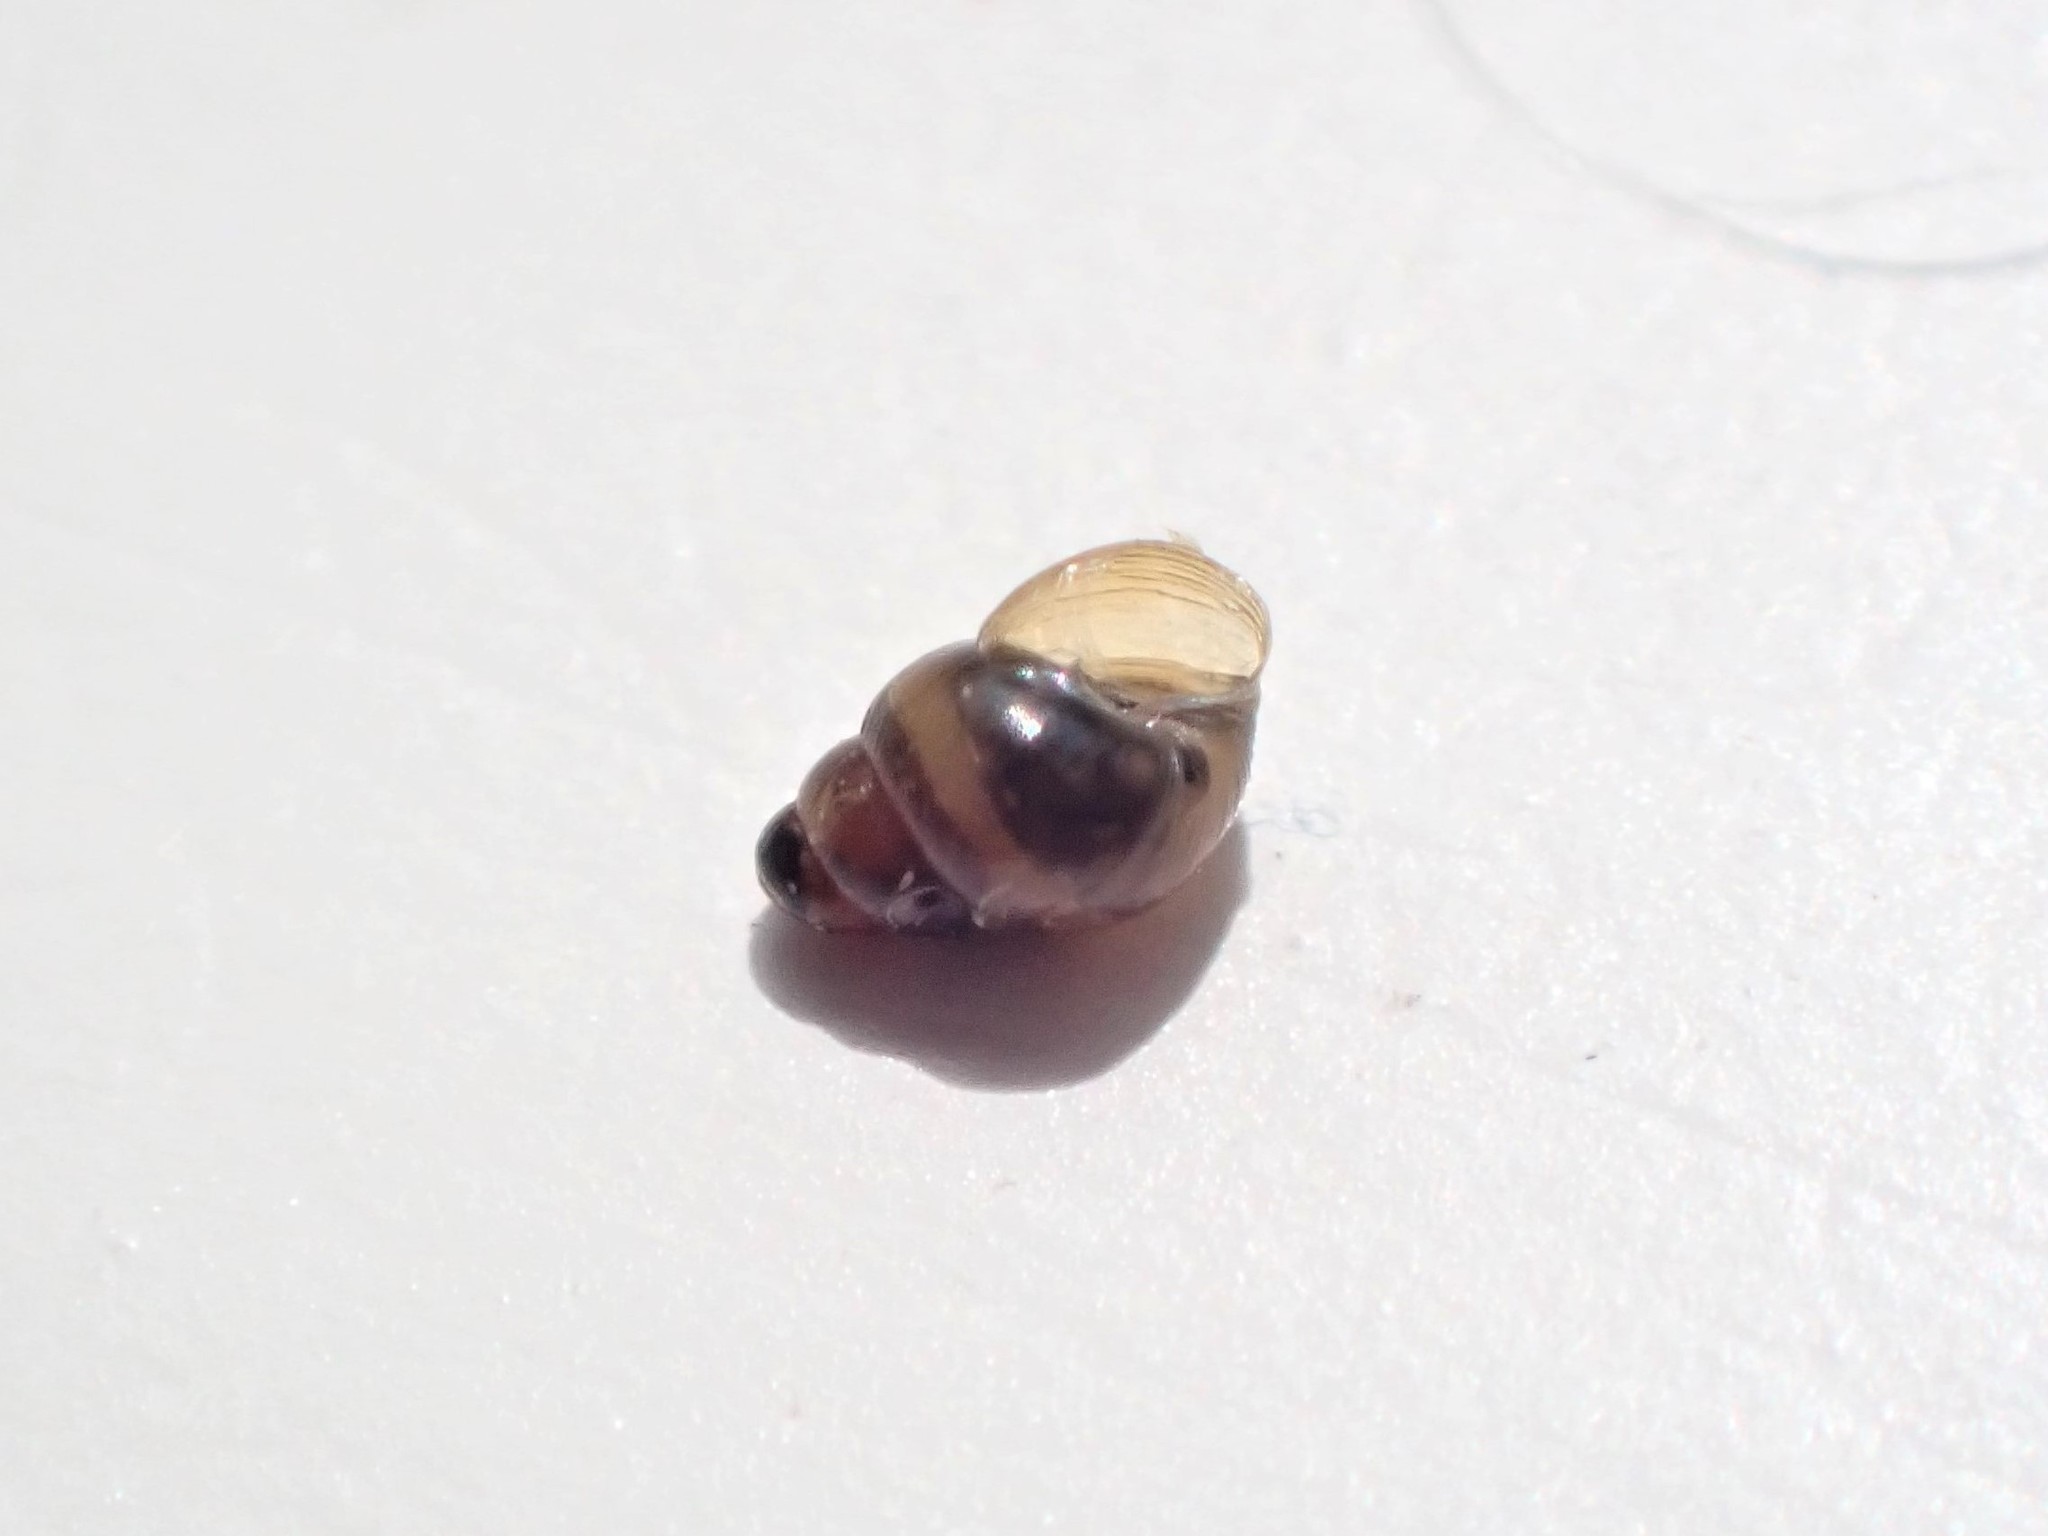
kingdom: Animalia
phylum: Mollusca
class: Gastropoda
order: Stylommatophora
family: Achatinellidae
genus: Tornatellinops
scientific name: Tornatellinops novoseelandicus
